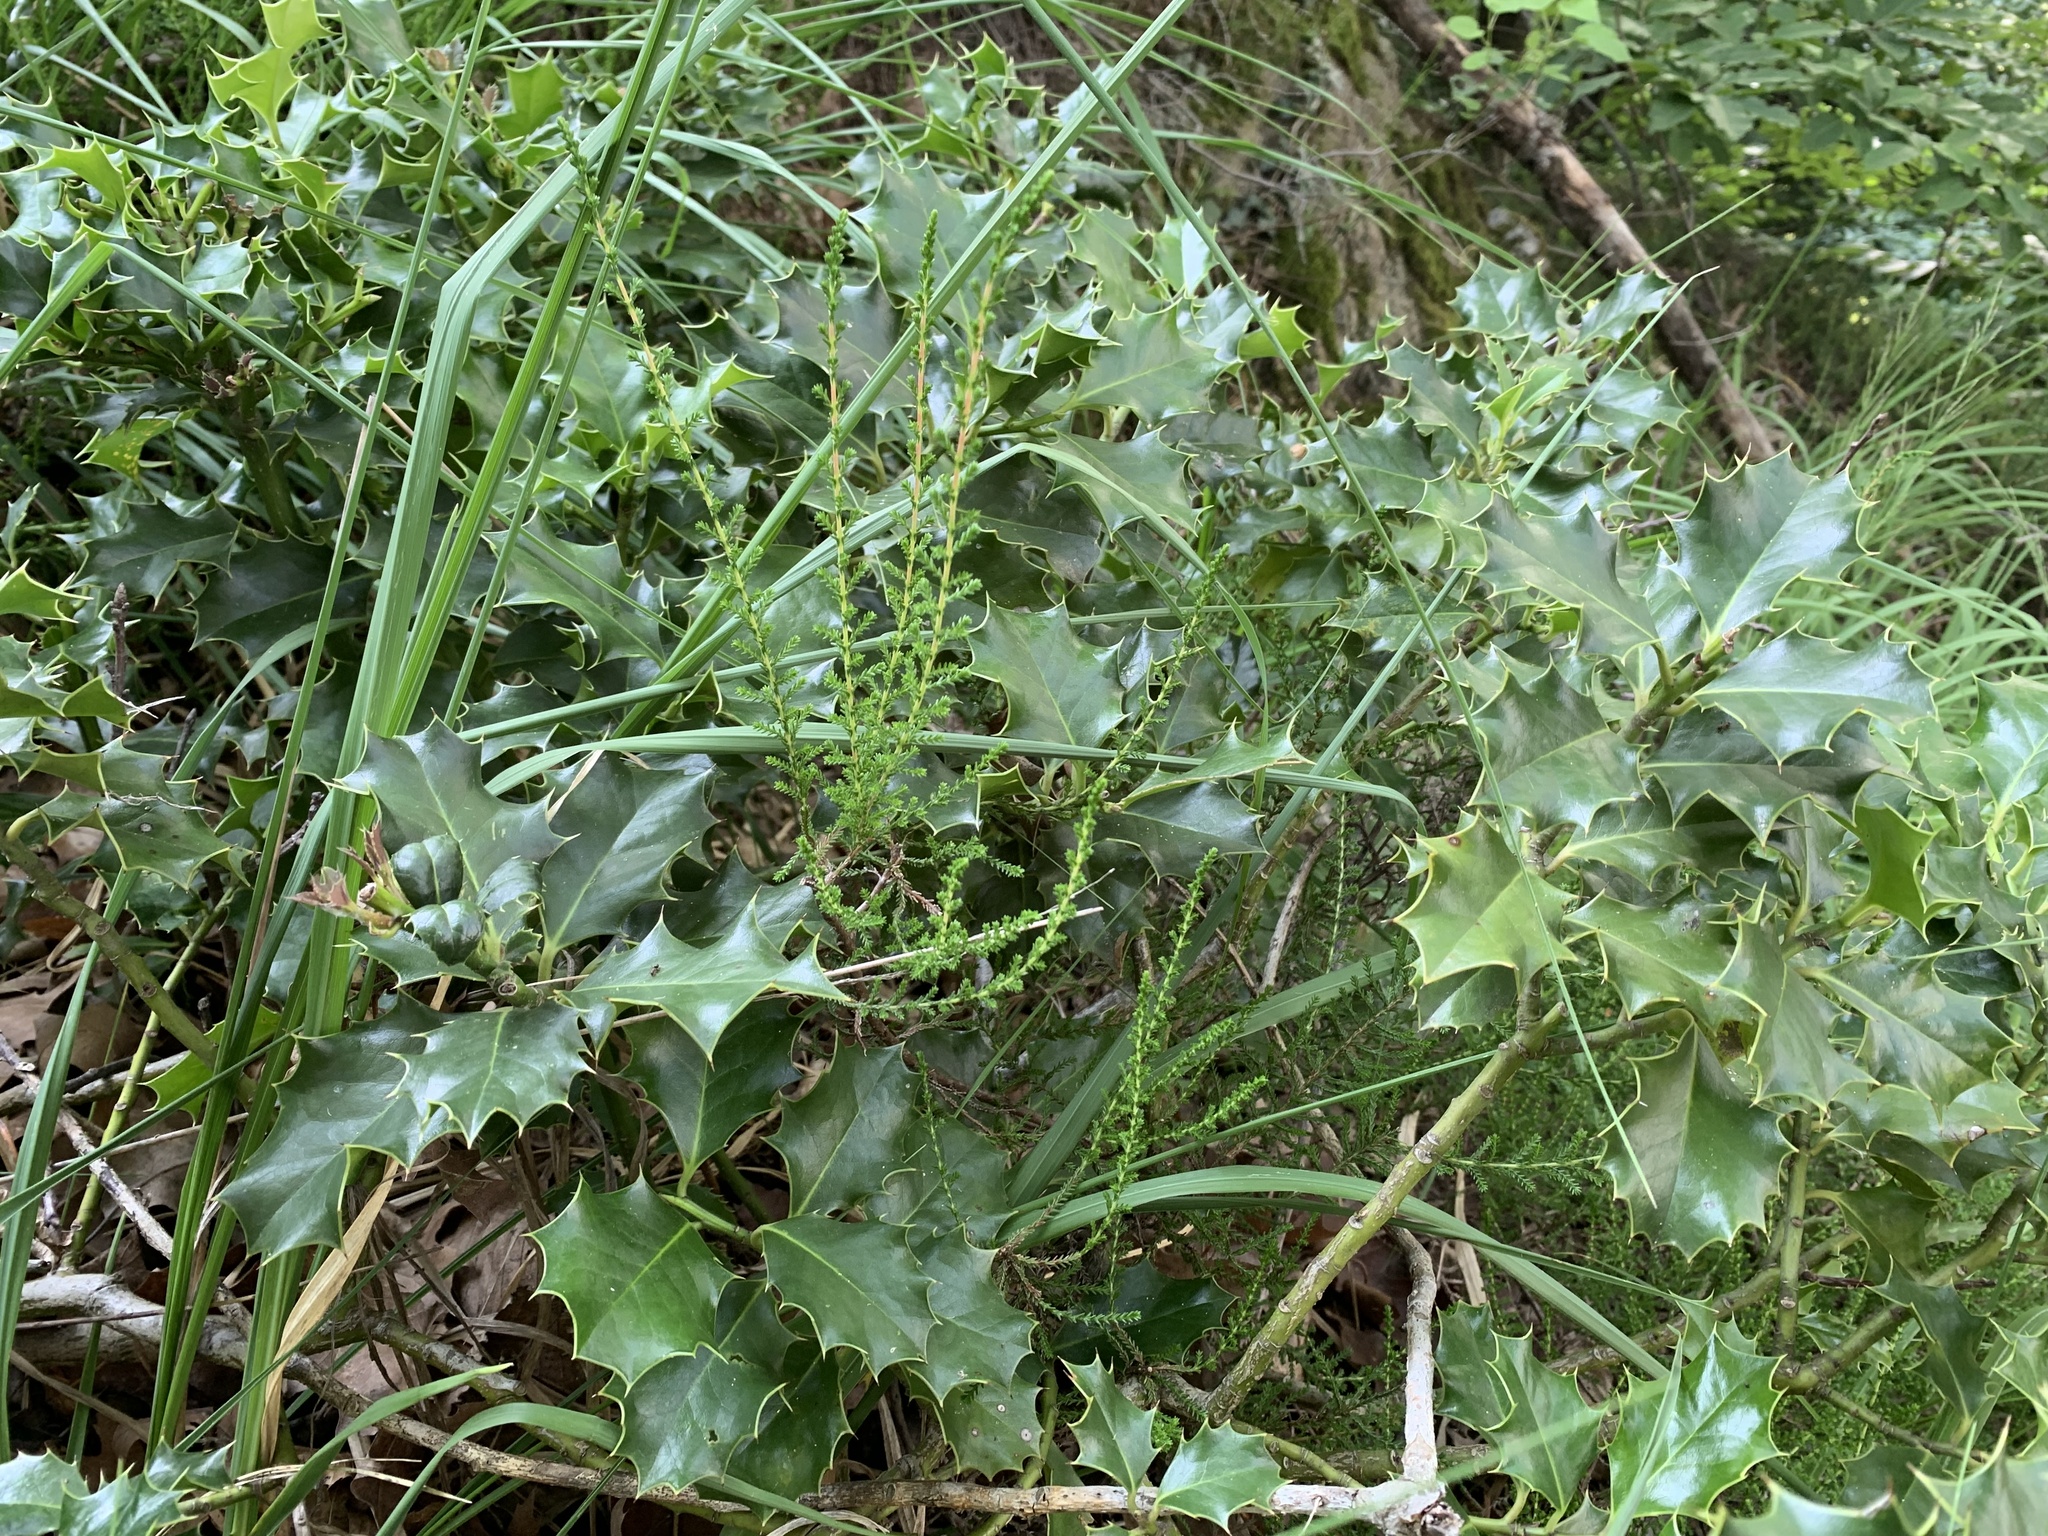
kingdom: Plantae
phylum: Tracheophyta
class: Magnoliopsida
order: Aquifoliales
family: Aquifoliaceae
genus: Ilex
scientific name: Ilex aquifolium
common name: English holly
